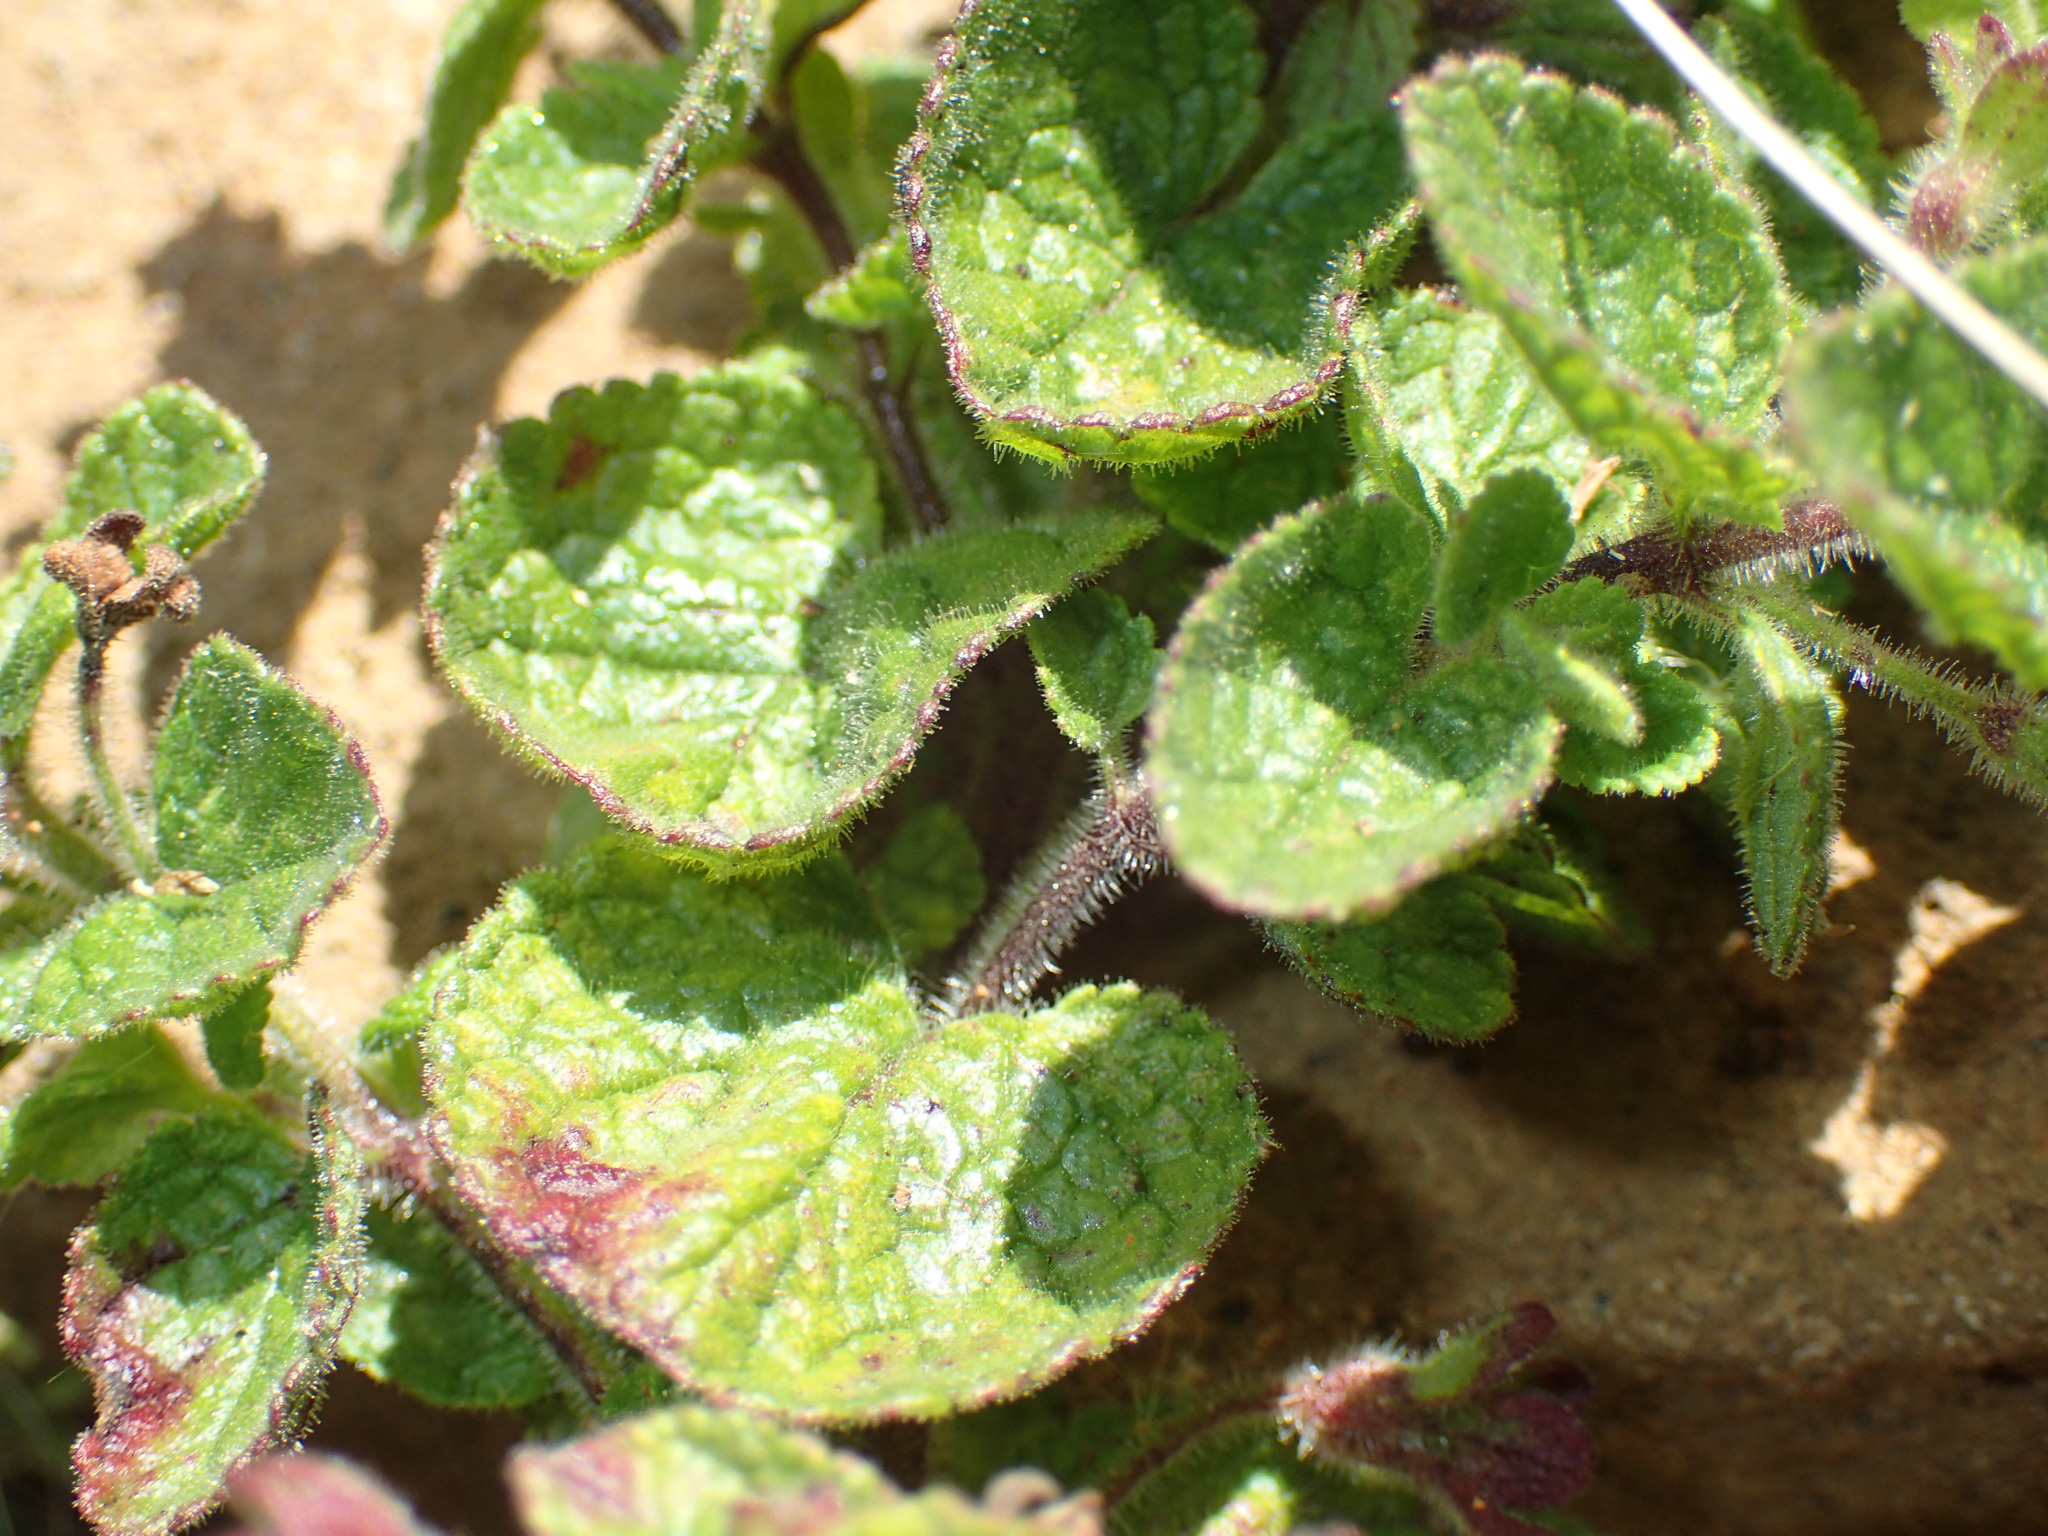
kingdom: Plantae
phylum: Tracheophyta
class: Magnoliopsida
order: Lamiales
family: Scrophulariaceae
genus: Jamesbrittenia
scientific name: Jamesbrittenia aurantiaca
